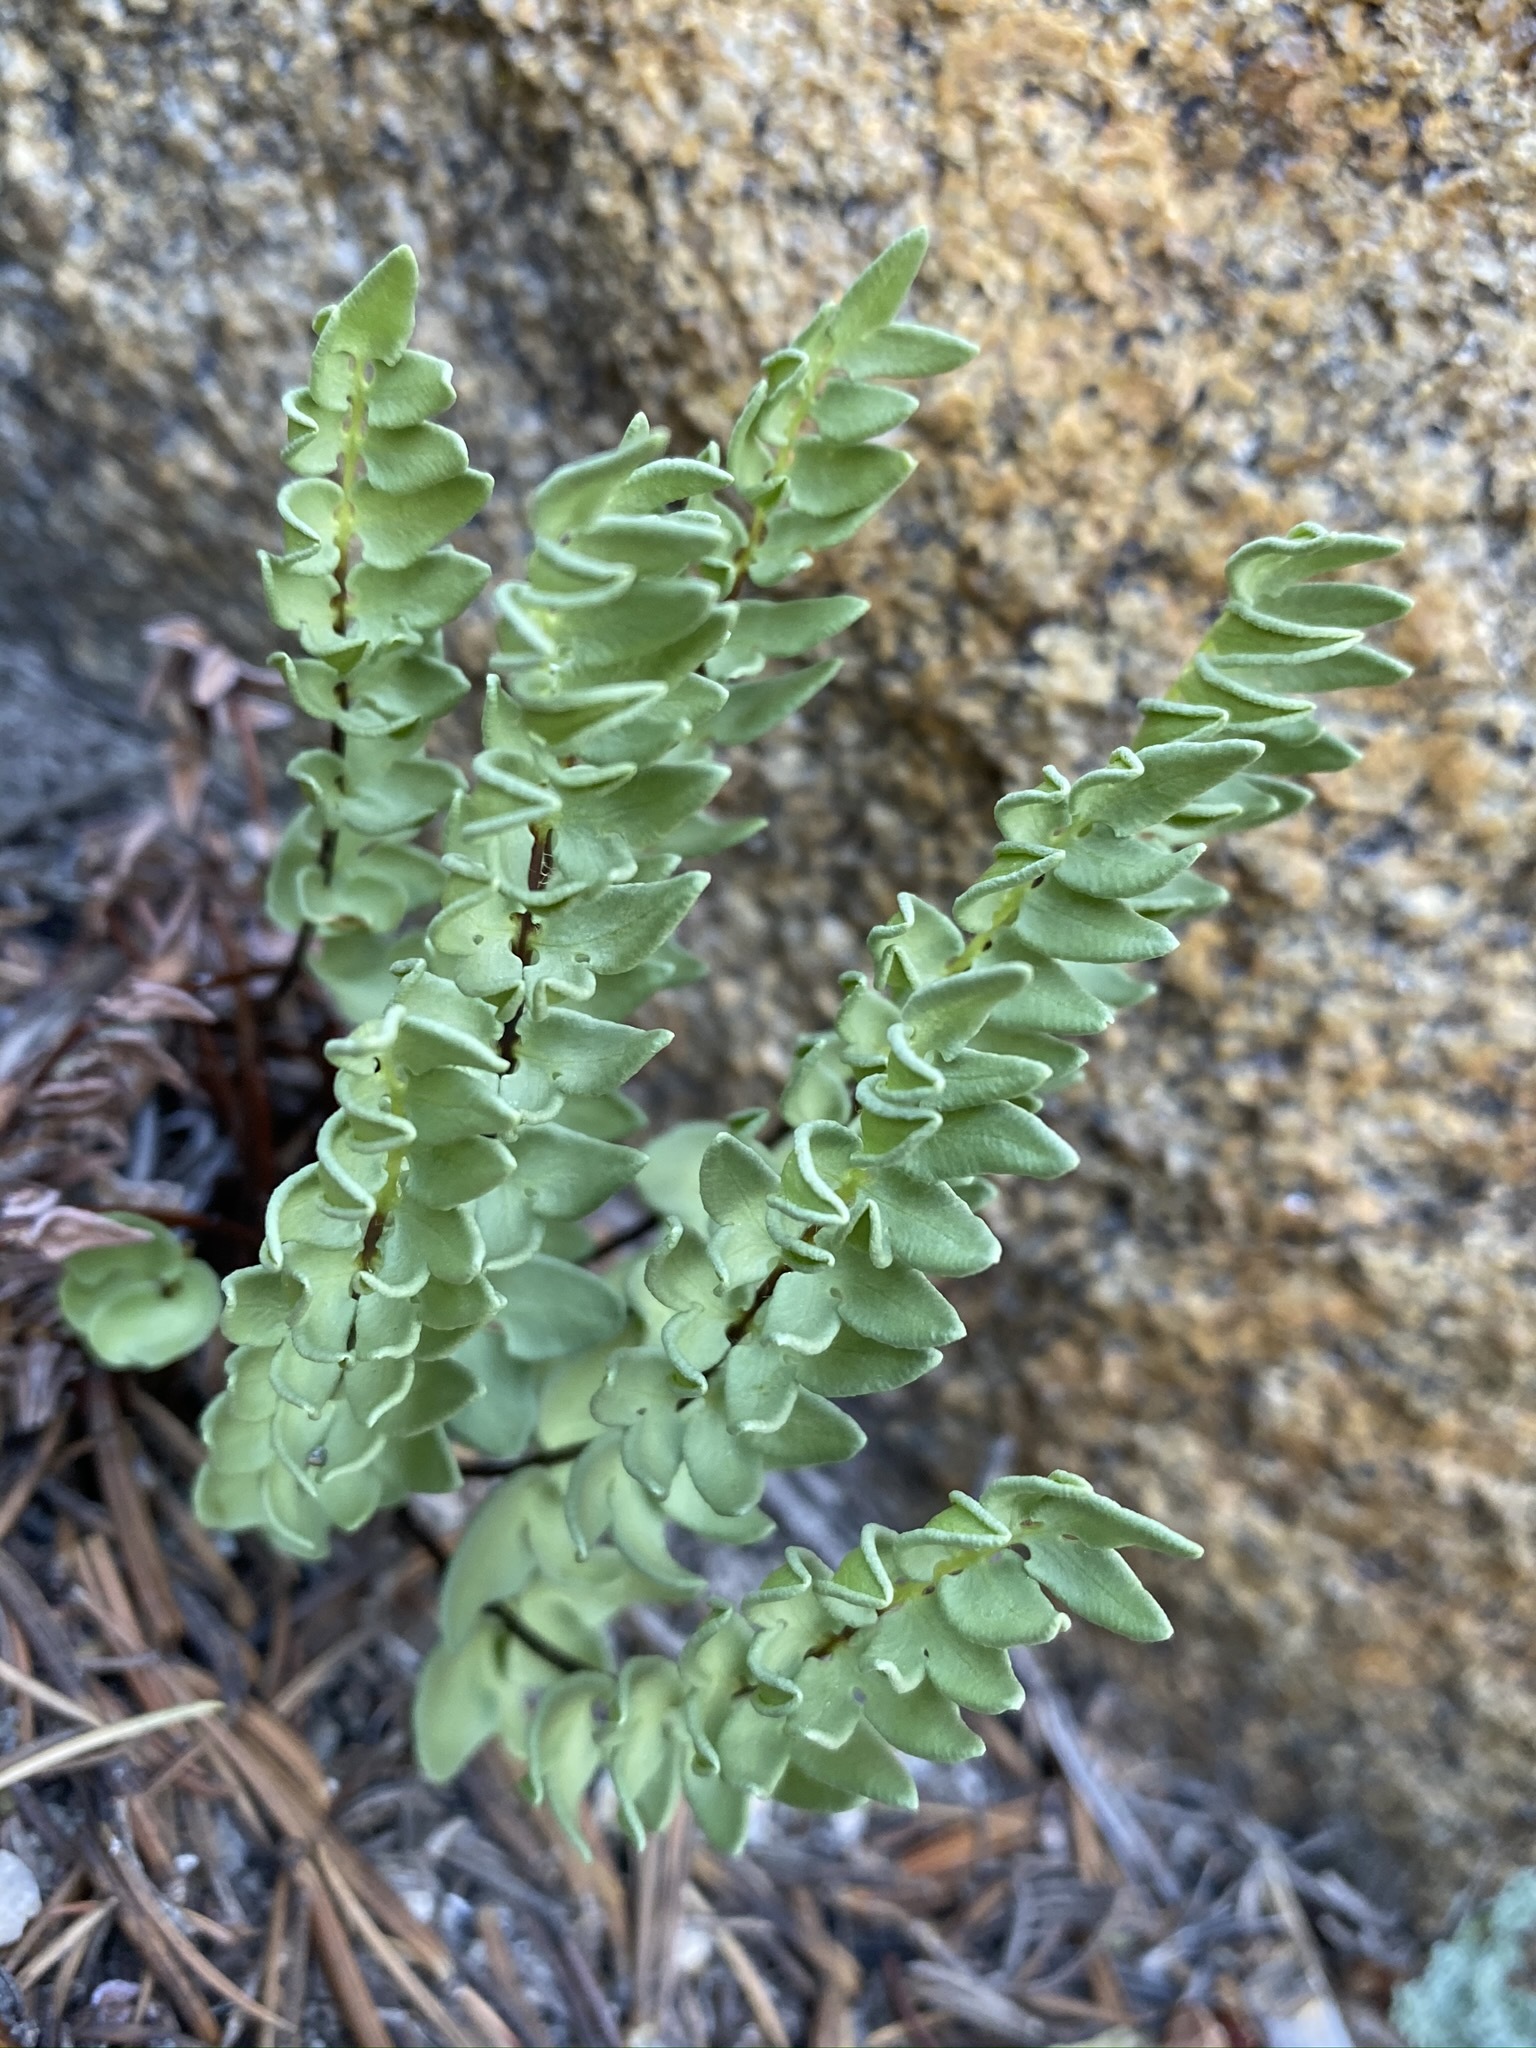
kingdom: Plantae
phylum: Tracheophyta
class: Polypodiopsida
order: Polypodiales
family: Pteridaceae
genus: Pellaea
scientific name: Pellaea breweri
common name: Brewer's cliffbrake
